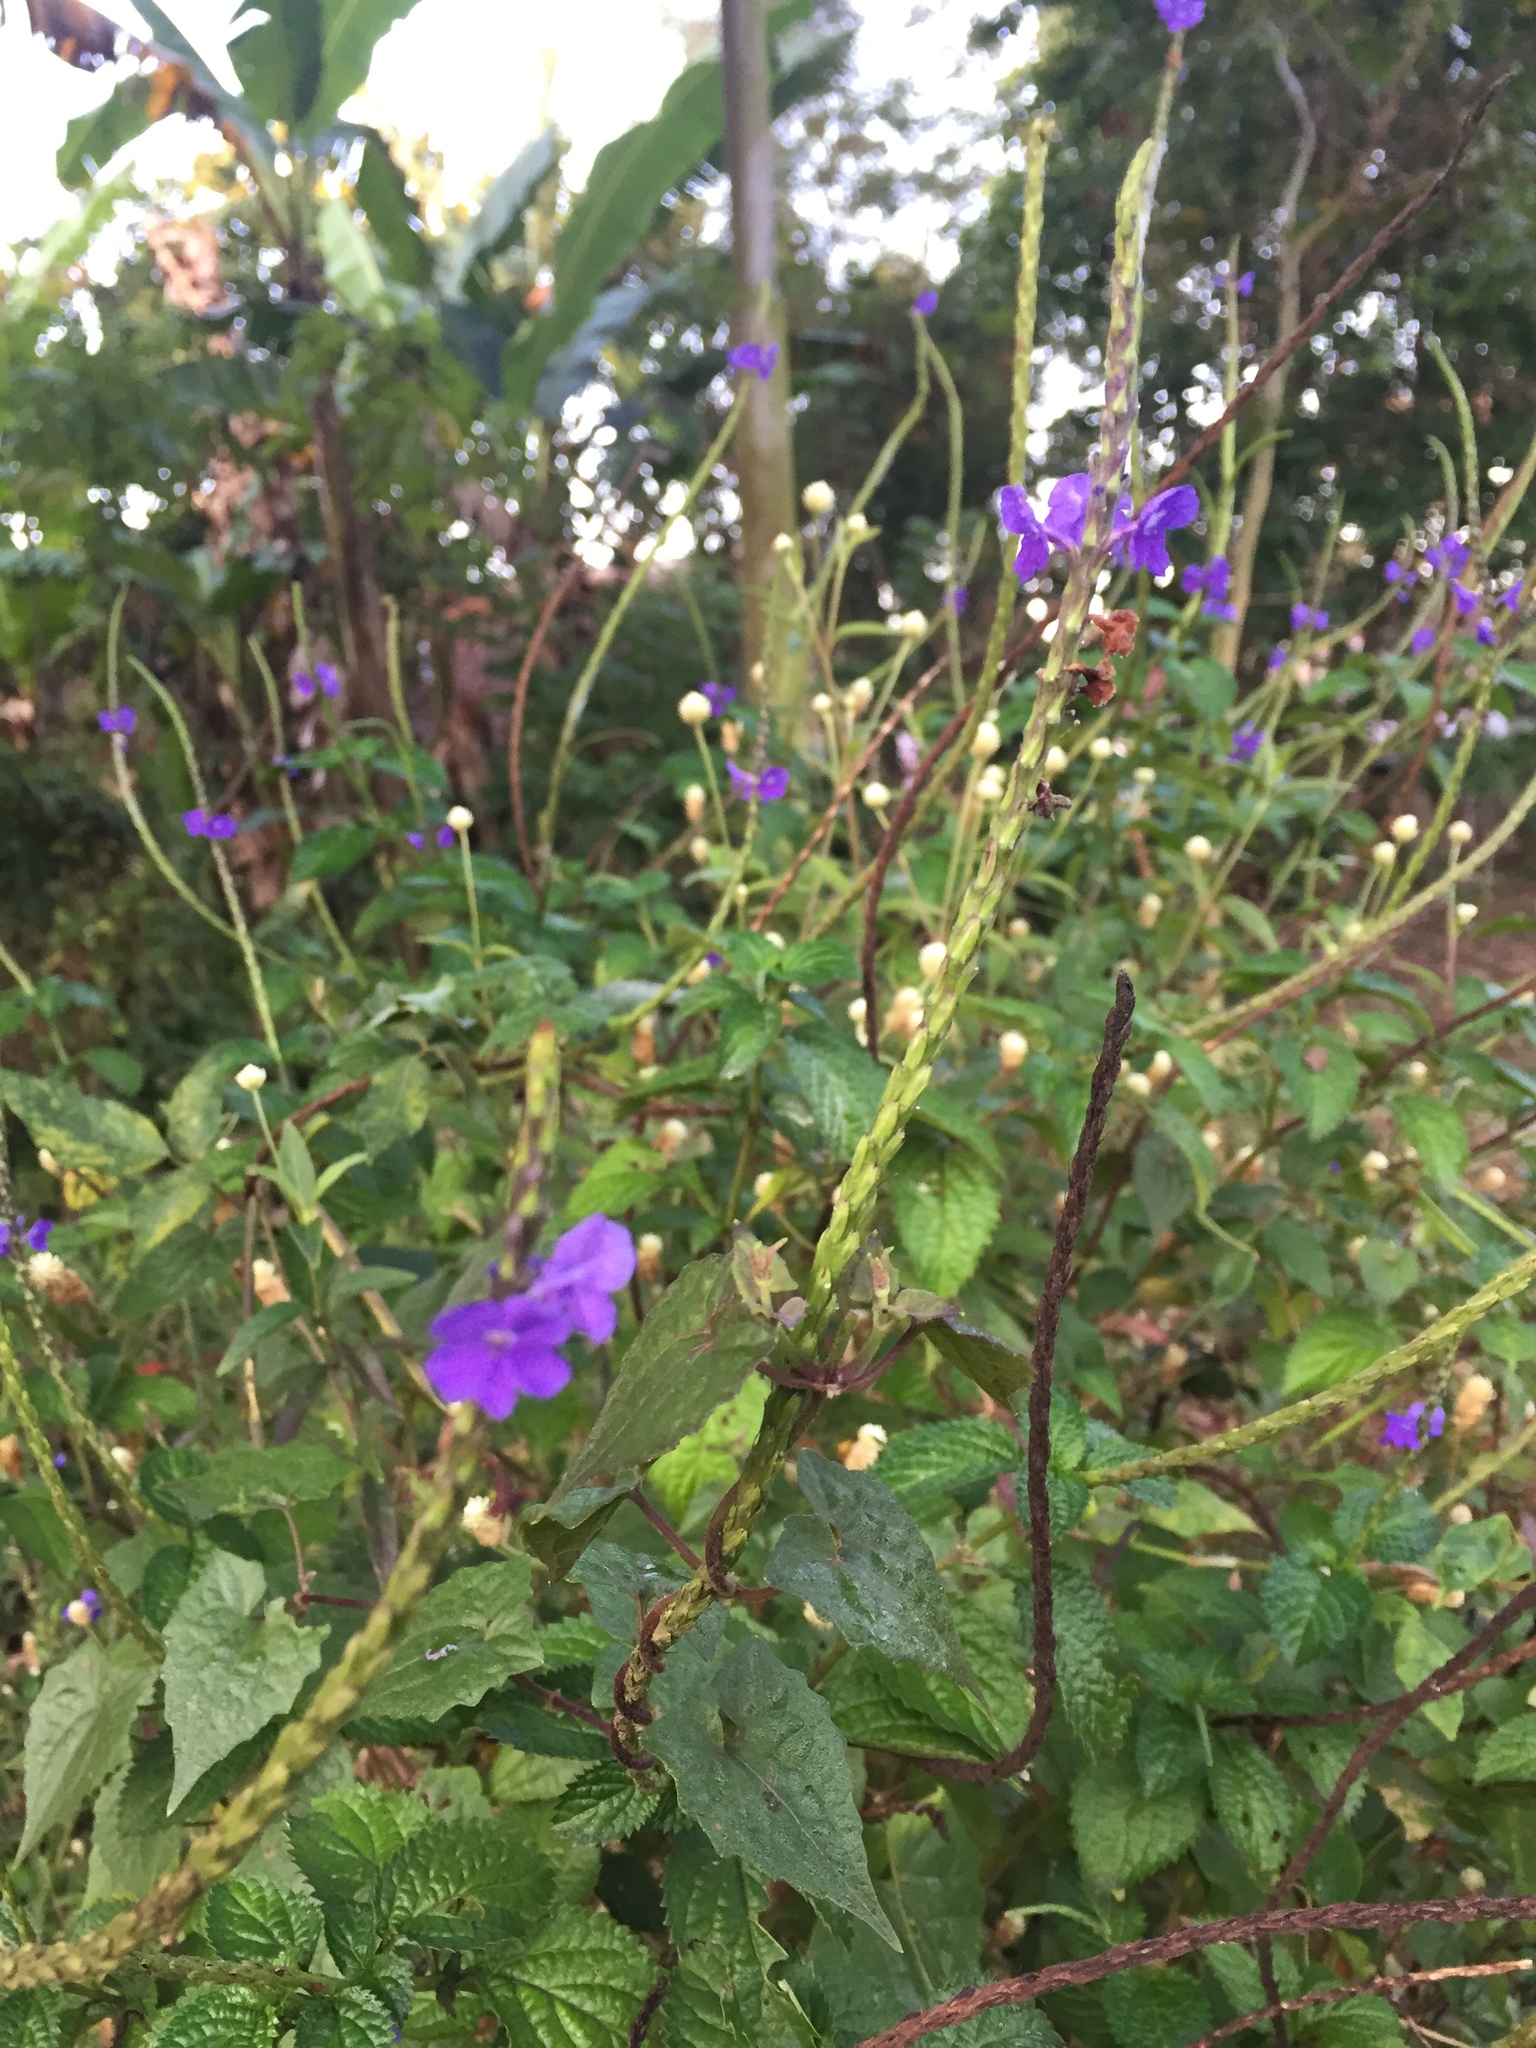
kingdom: Plantae
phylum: Tracheophyta
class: Magnoliopsida
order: Lamiales
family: Verbenaceae
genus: Stachytarpheta
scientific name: Stachytarpheta jamaicensis
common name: Light-blue snakeweed
